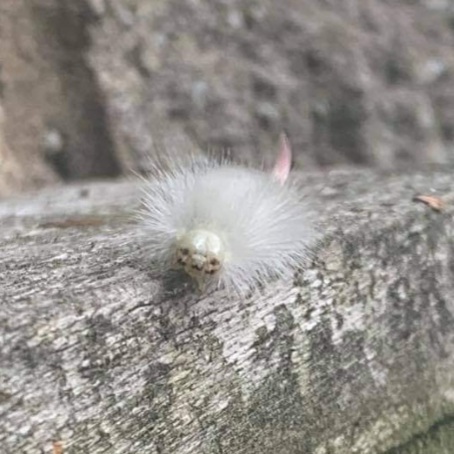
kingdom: Animalia
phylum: Arthropoda
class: Insecta
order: Lepidoptera
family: Erebidae
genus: Calliteara
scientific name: Calliteara pudibunda
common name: Pale tussock
